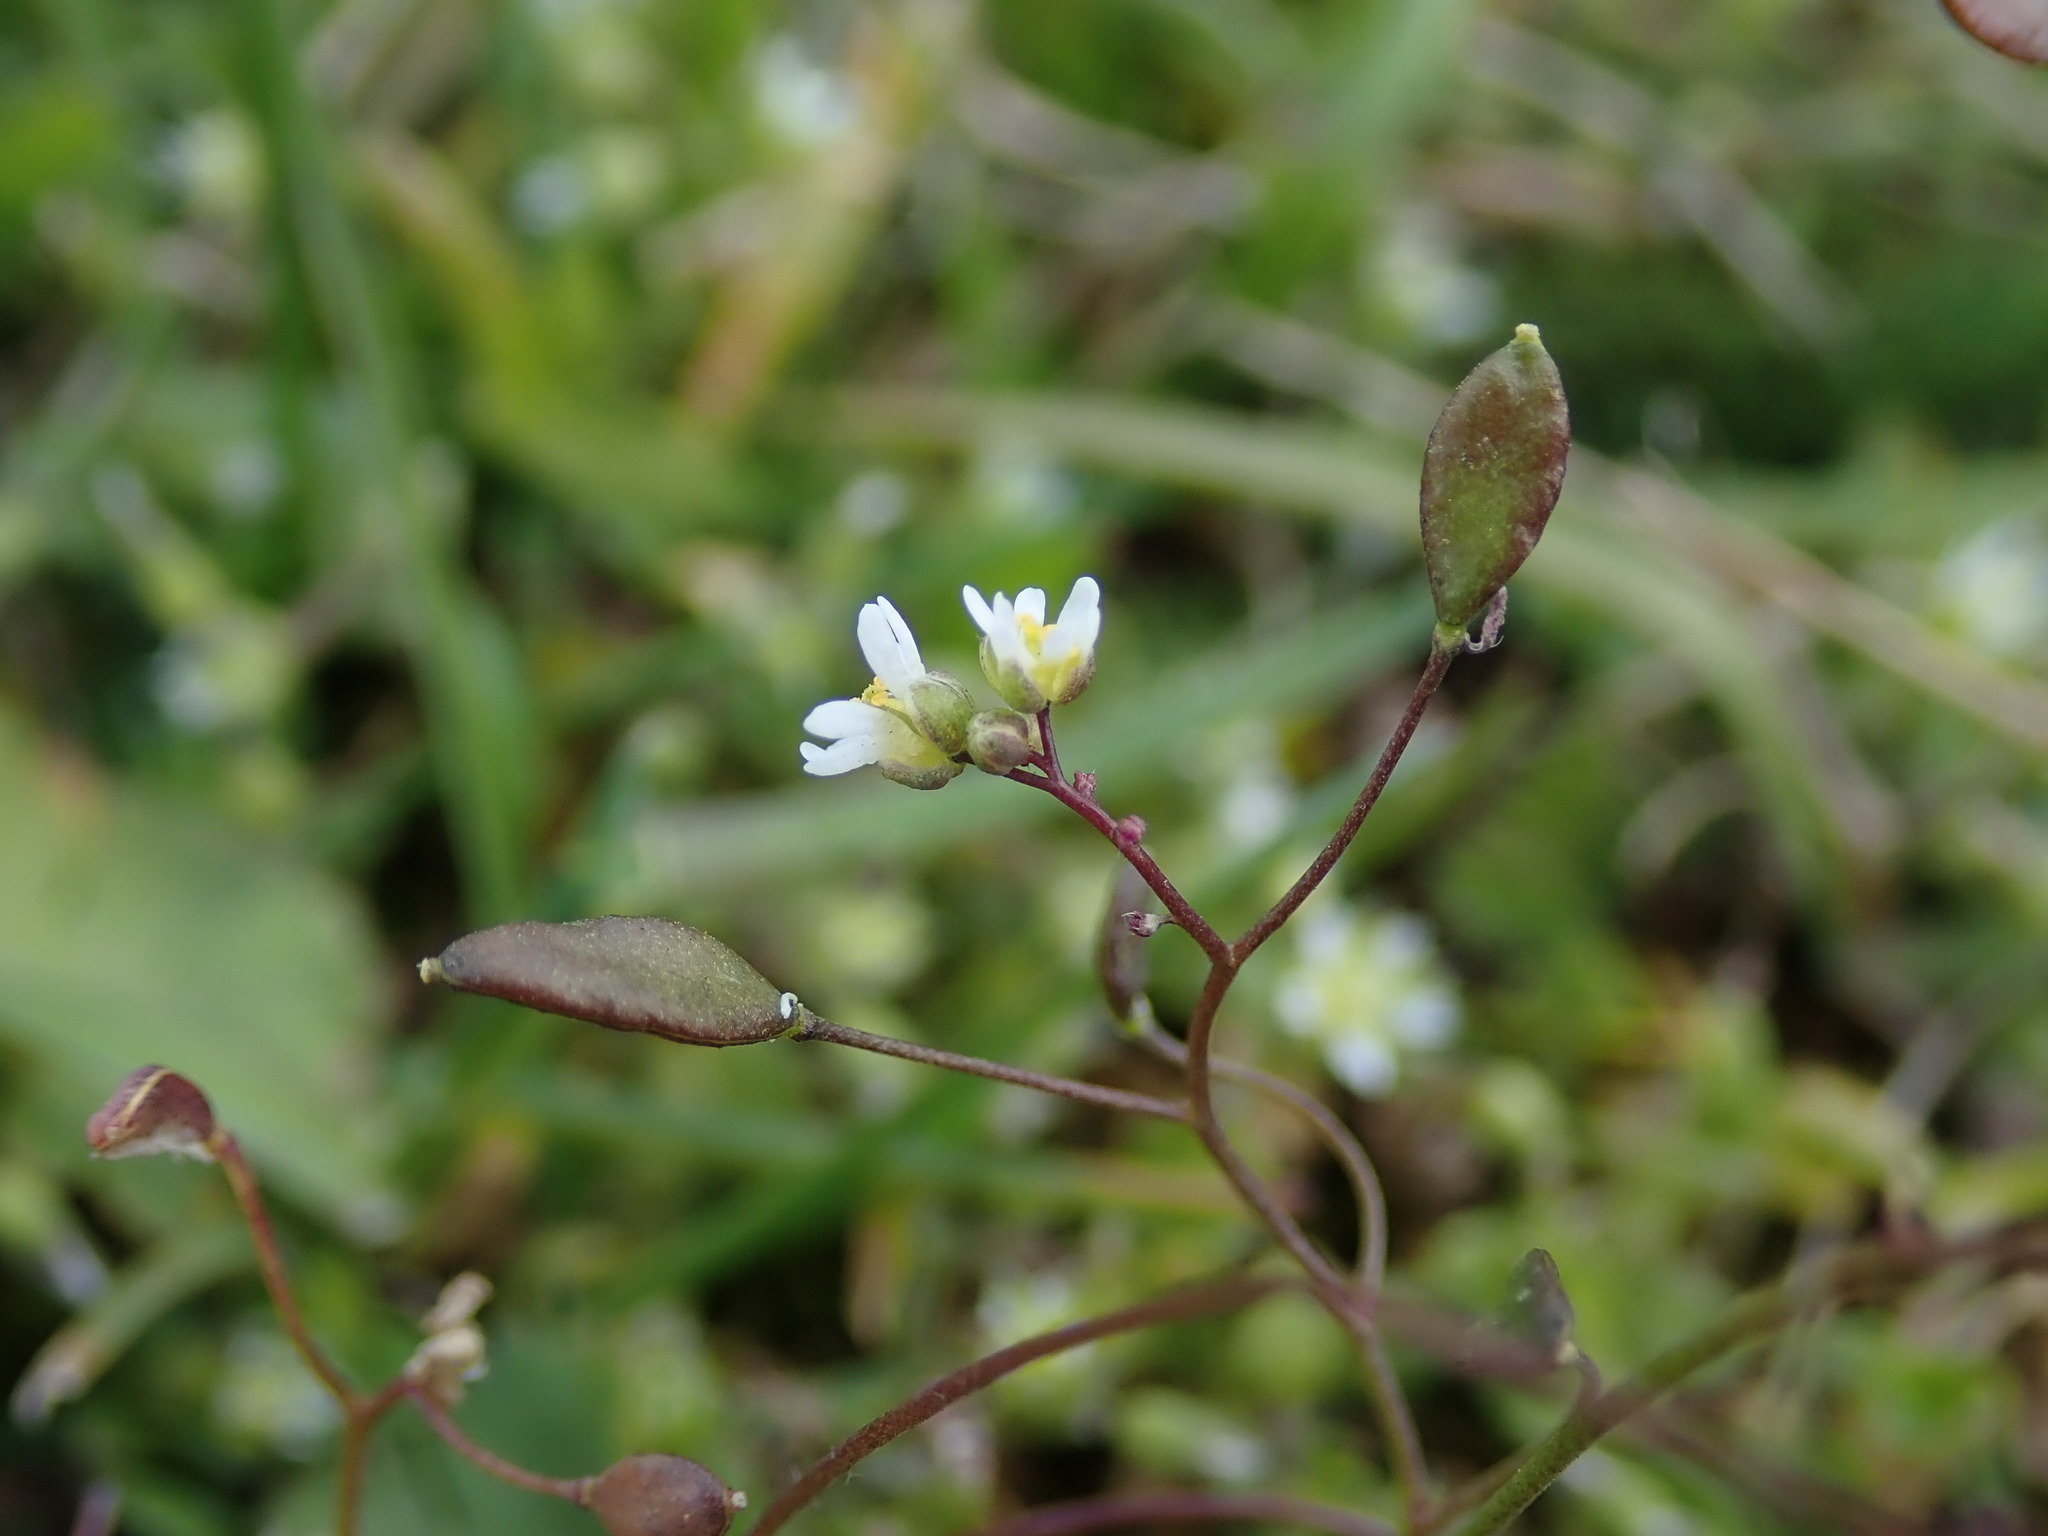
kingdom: Plantae
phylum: Tracheophyta
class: Magnoliopsida
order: Brassicales
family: Brassicaceae
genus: Draba
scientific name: Draba verna
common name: Spring draba
